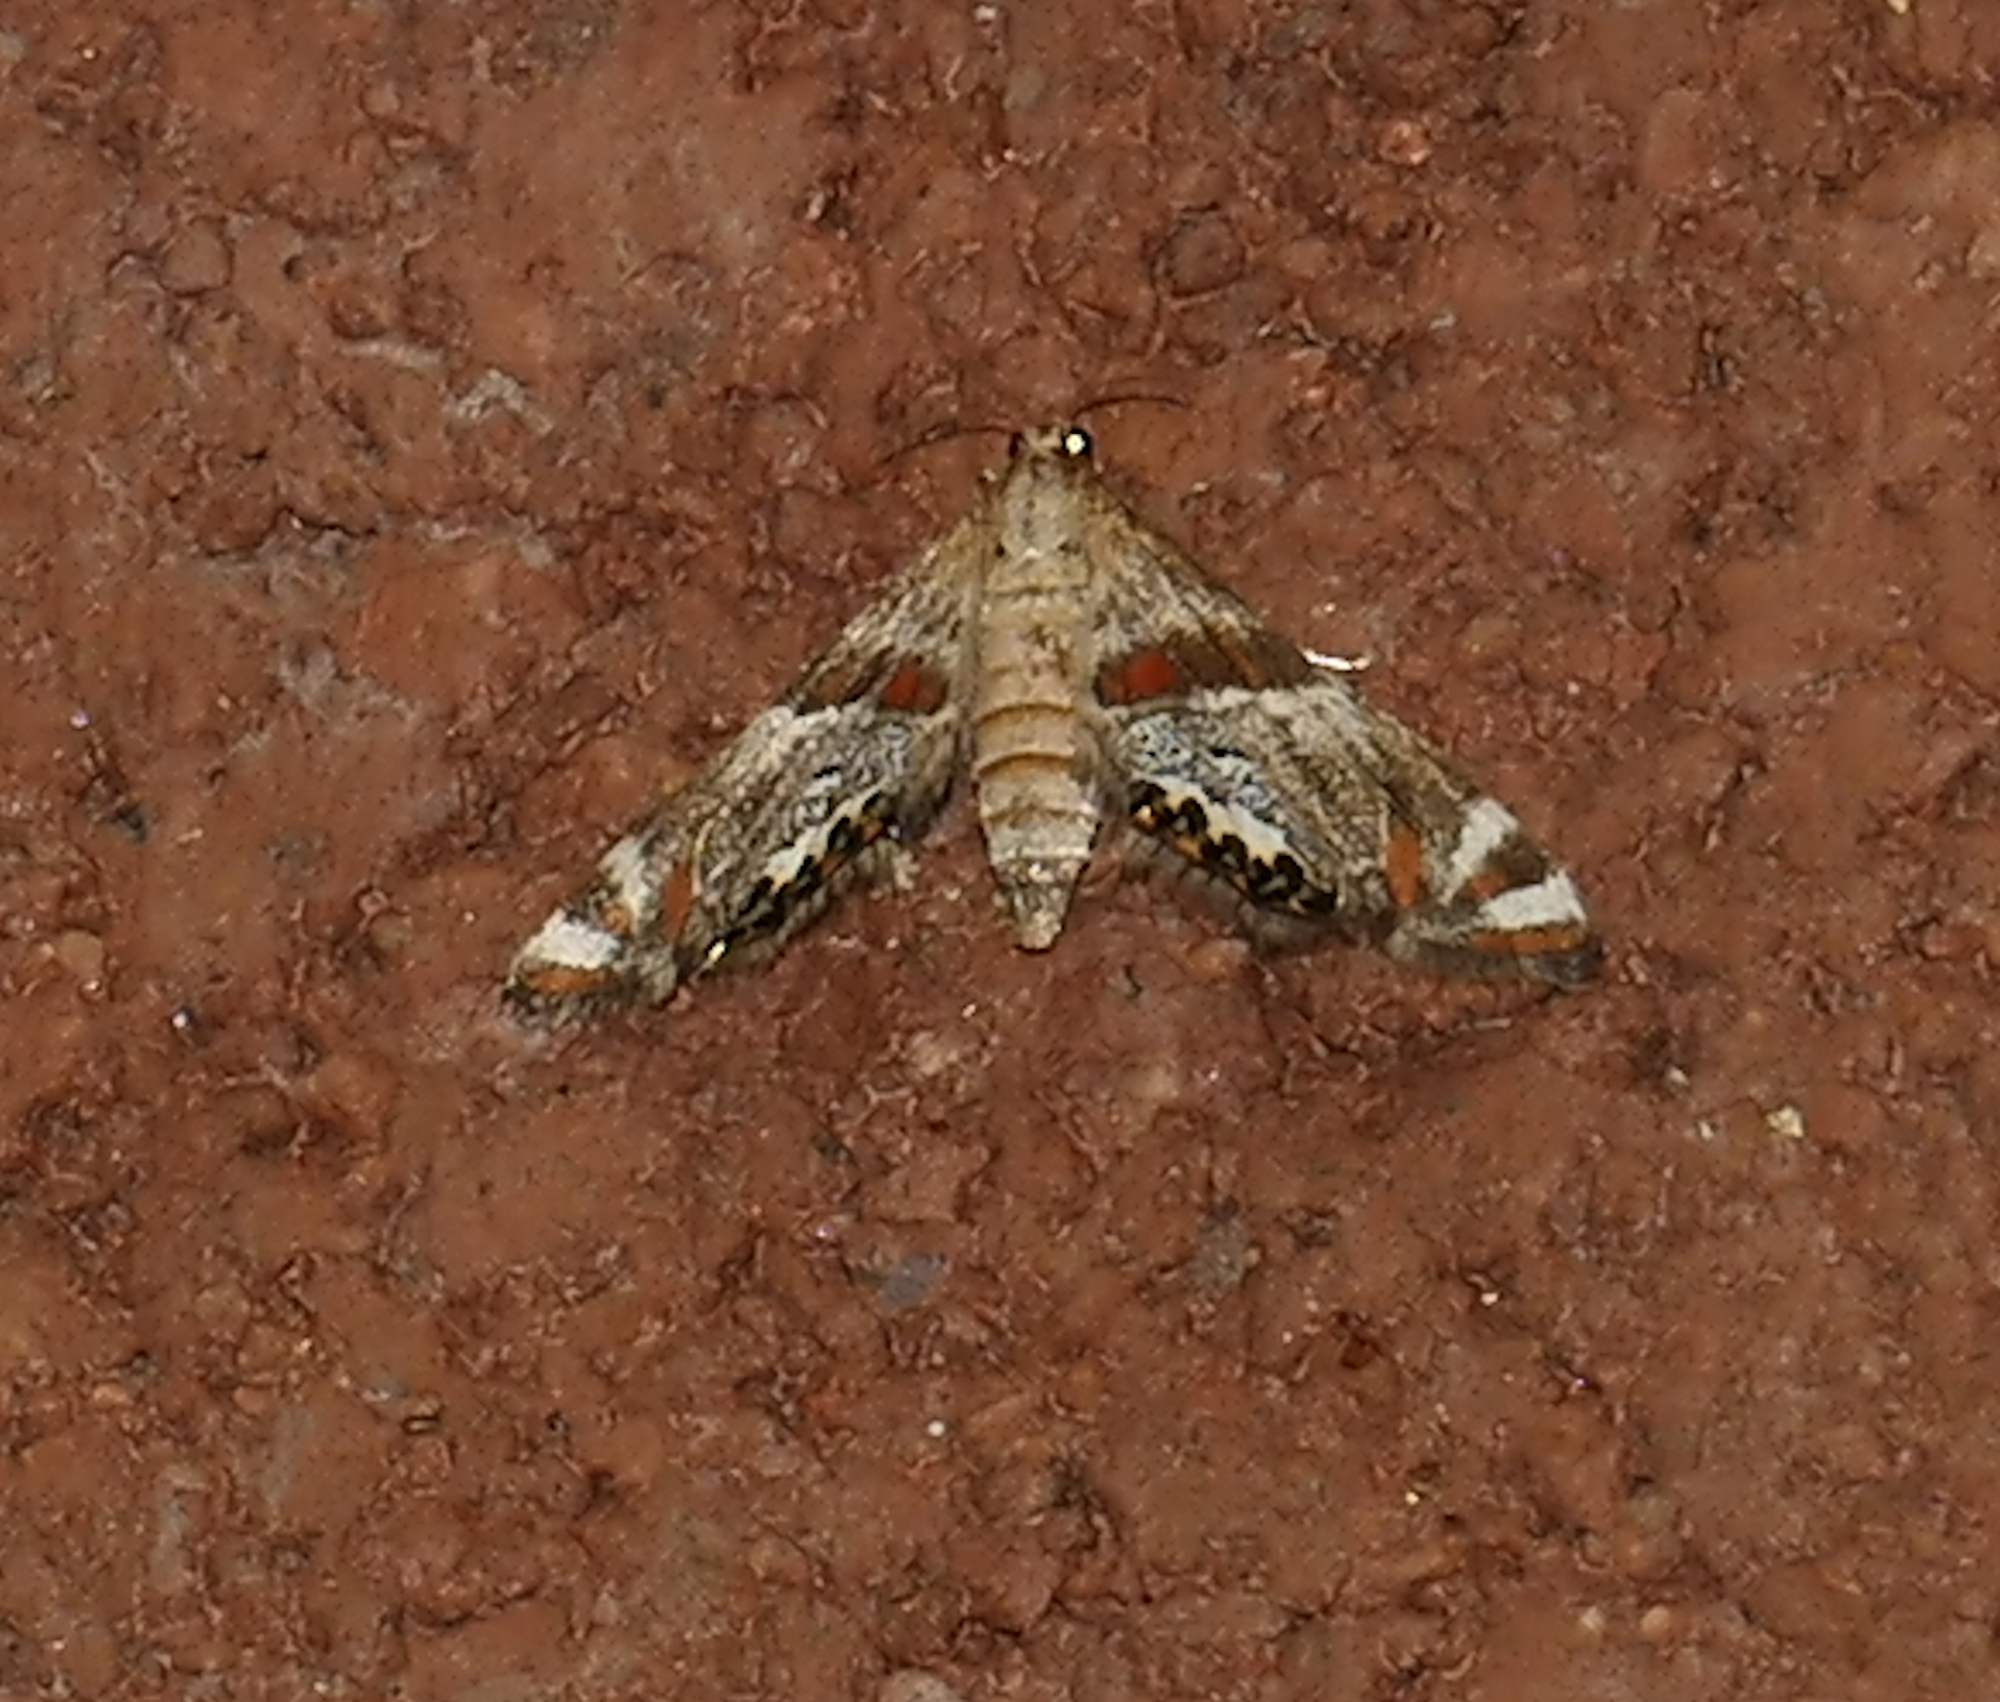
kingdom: Animalia
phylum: Arthropoda
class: Insecta
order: Lepidoptera
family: Crambidae
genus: Petrophila
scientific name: Petrophila jaliscalis
